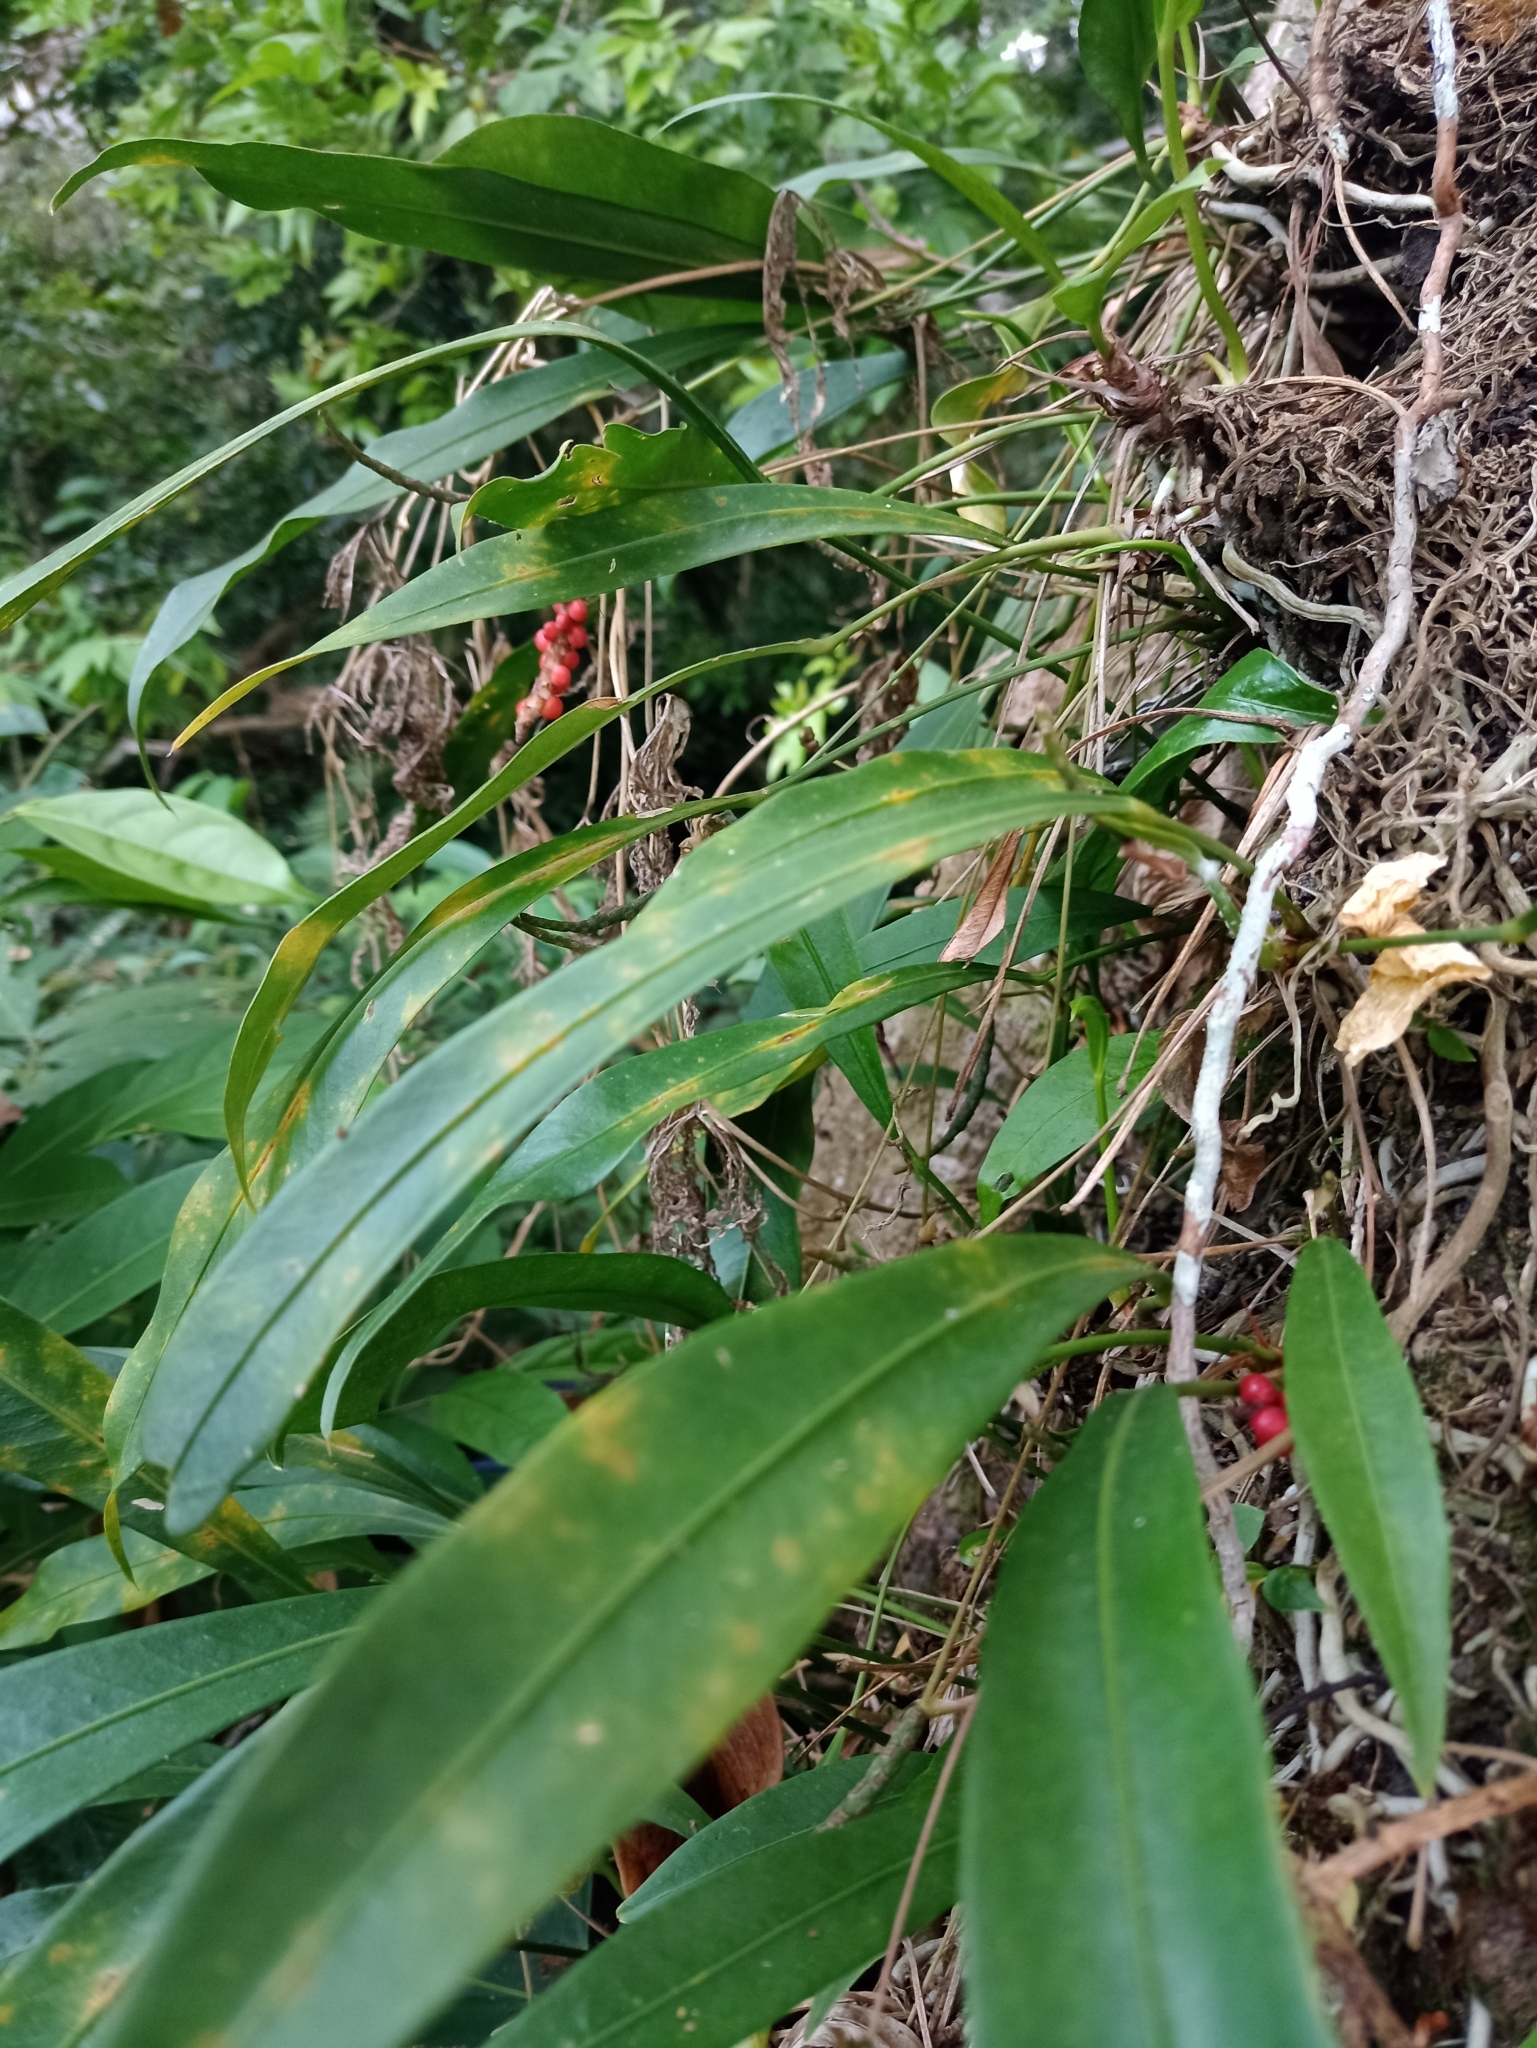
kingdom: Plantae
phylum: Tracheophyta
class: Liliopsida
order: Alismatales
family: Araceae
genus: Anthurium
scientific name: Anthurium gracile
